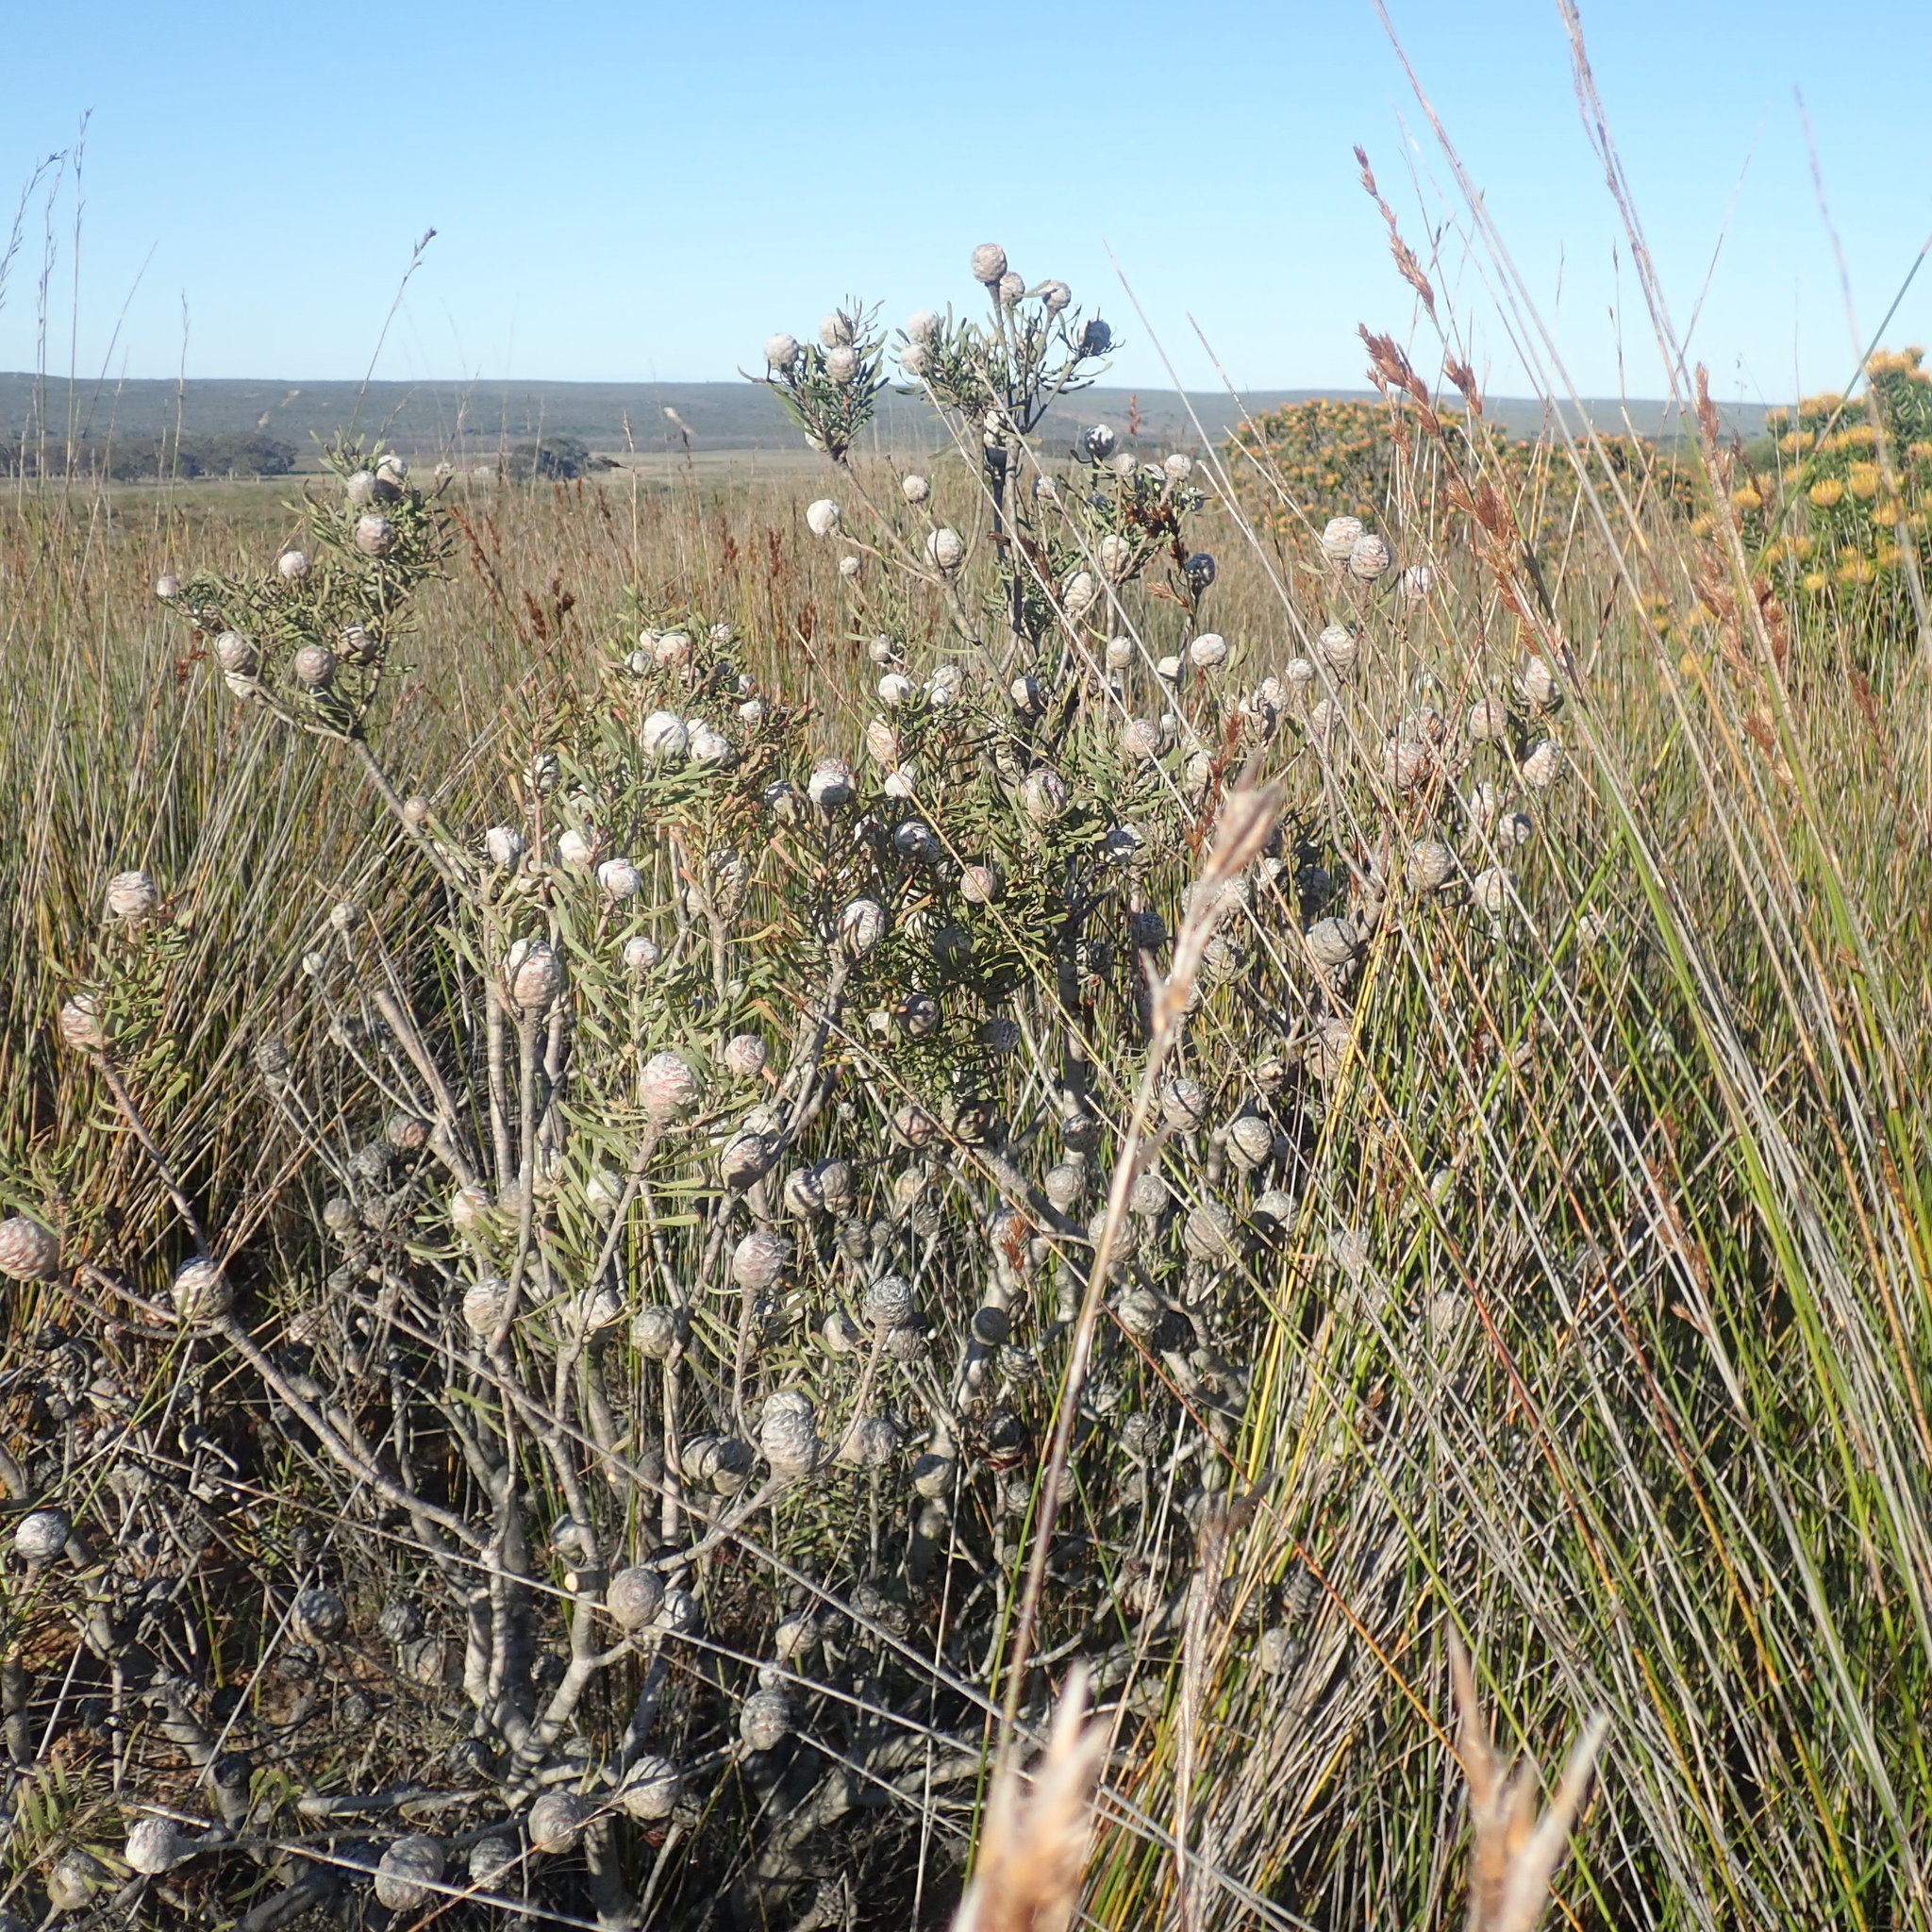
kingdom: Plantae
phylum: Tracheophyta
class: Magnoliopsida
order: Proteales
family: Proteaceae
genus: Leucadendron
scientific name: Leucadendron galpinii
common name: Hairless conebush
